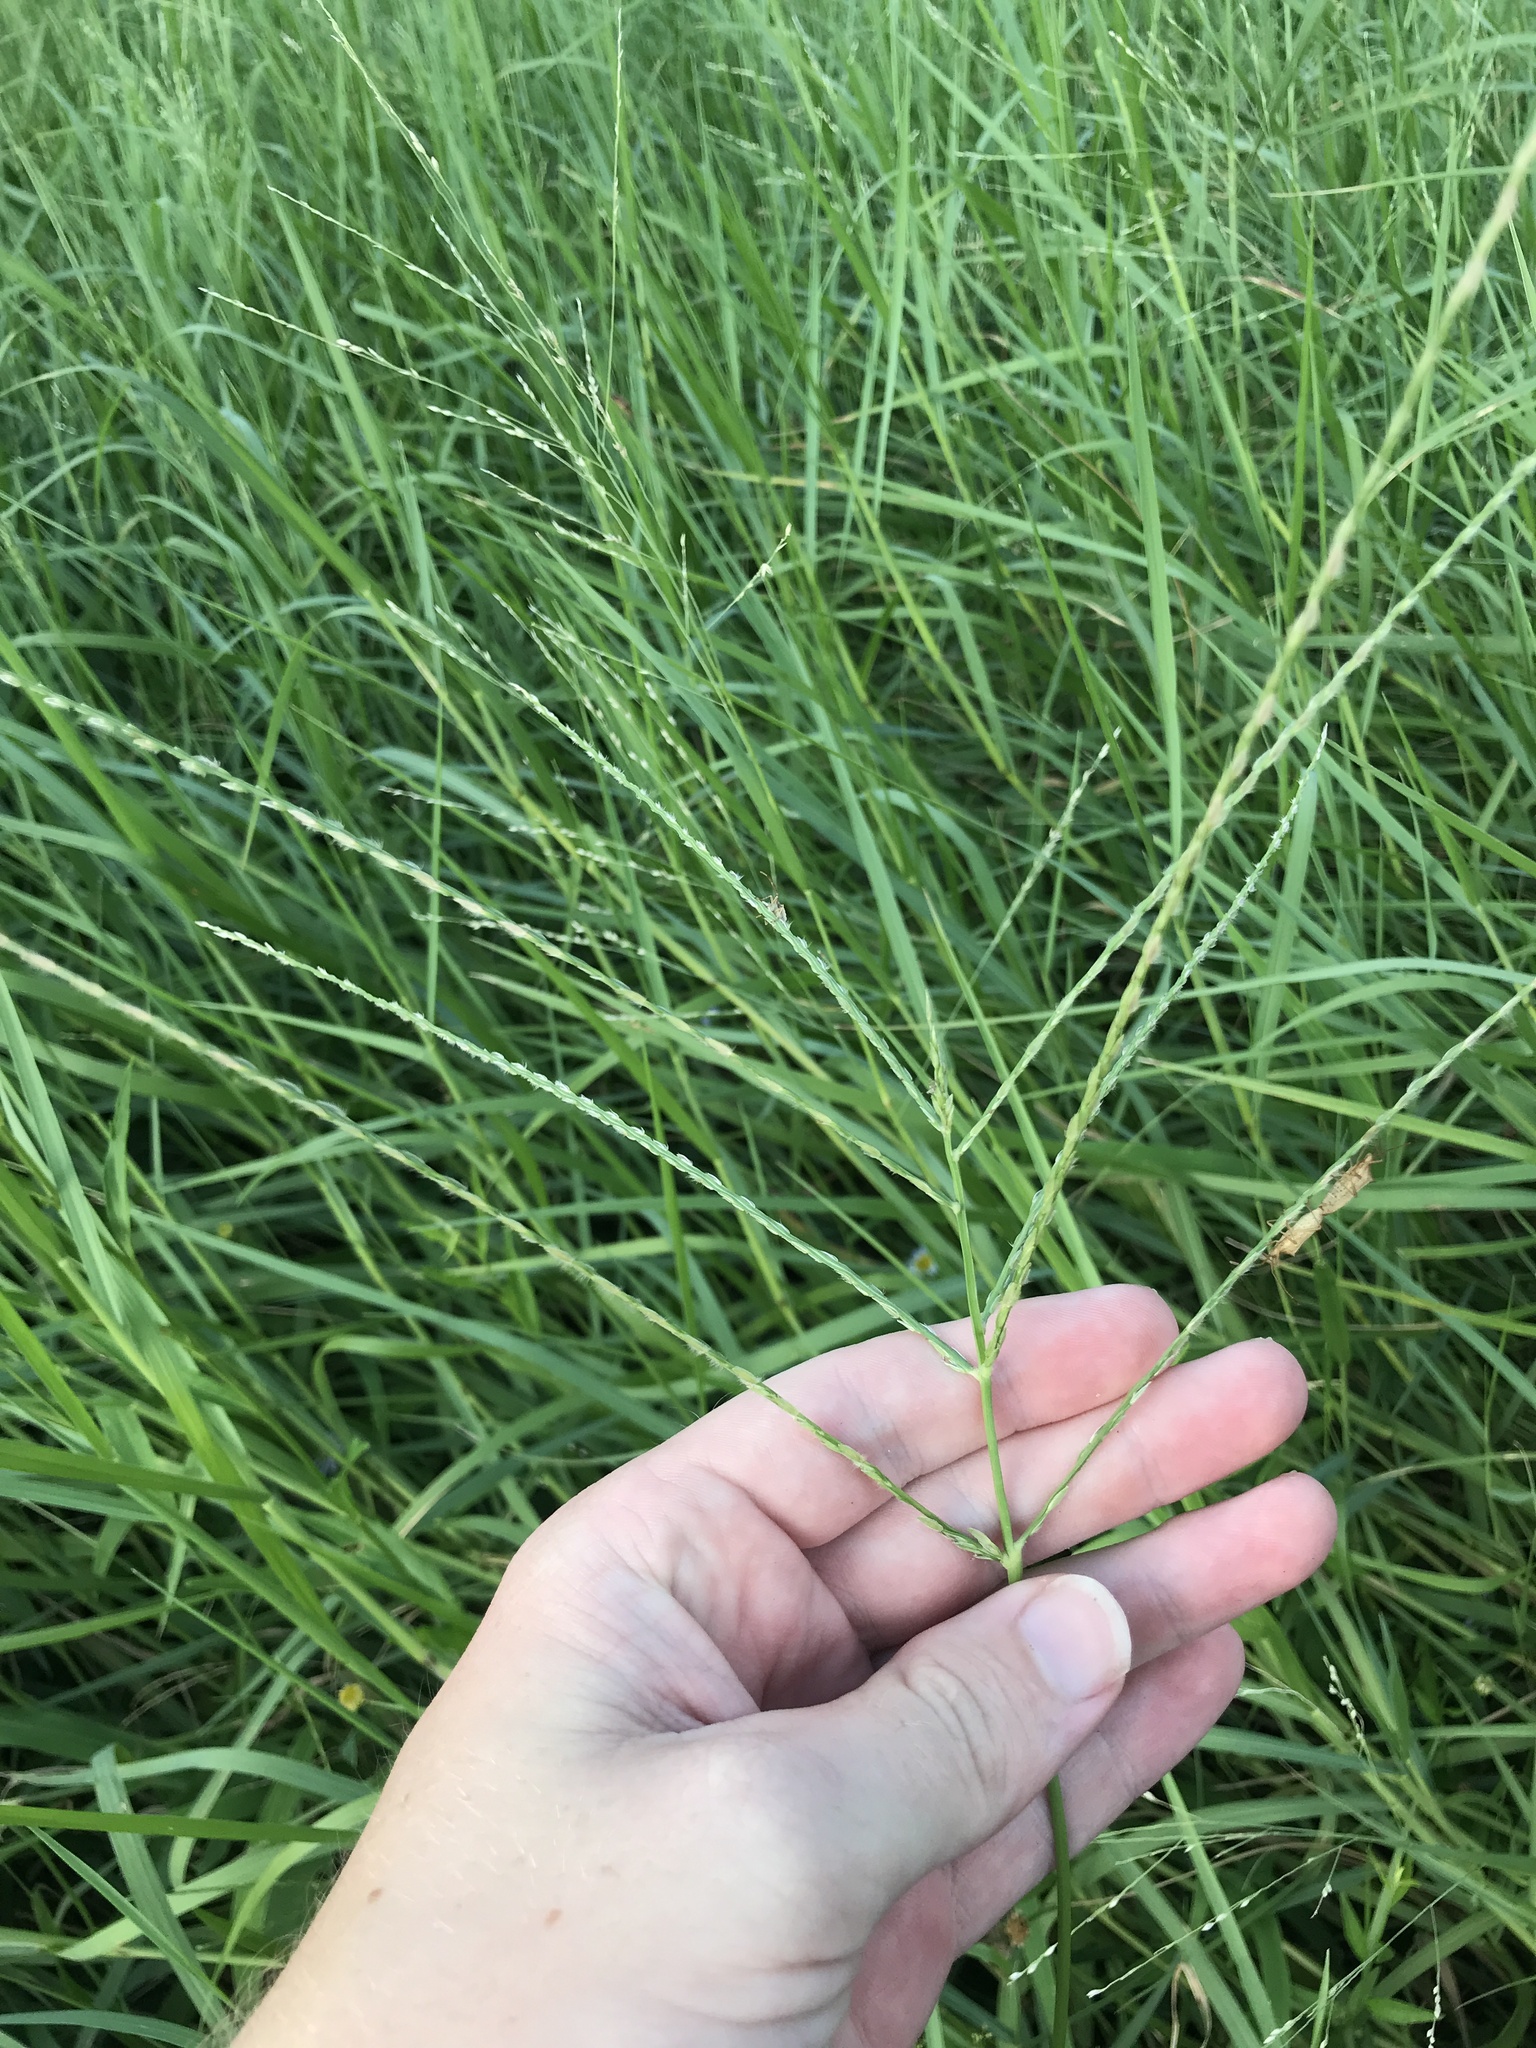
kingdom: Plantae
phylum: Tracheophyta
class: Liliopsida
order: Poales
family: Poaceae
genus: Digitaria
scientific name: Digitaria ciliaris
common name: Tropical finger-grass
